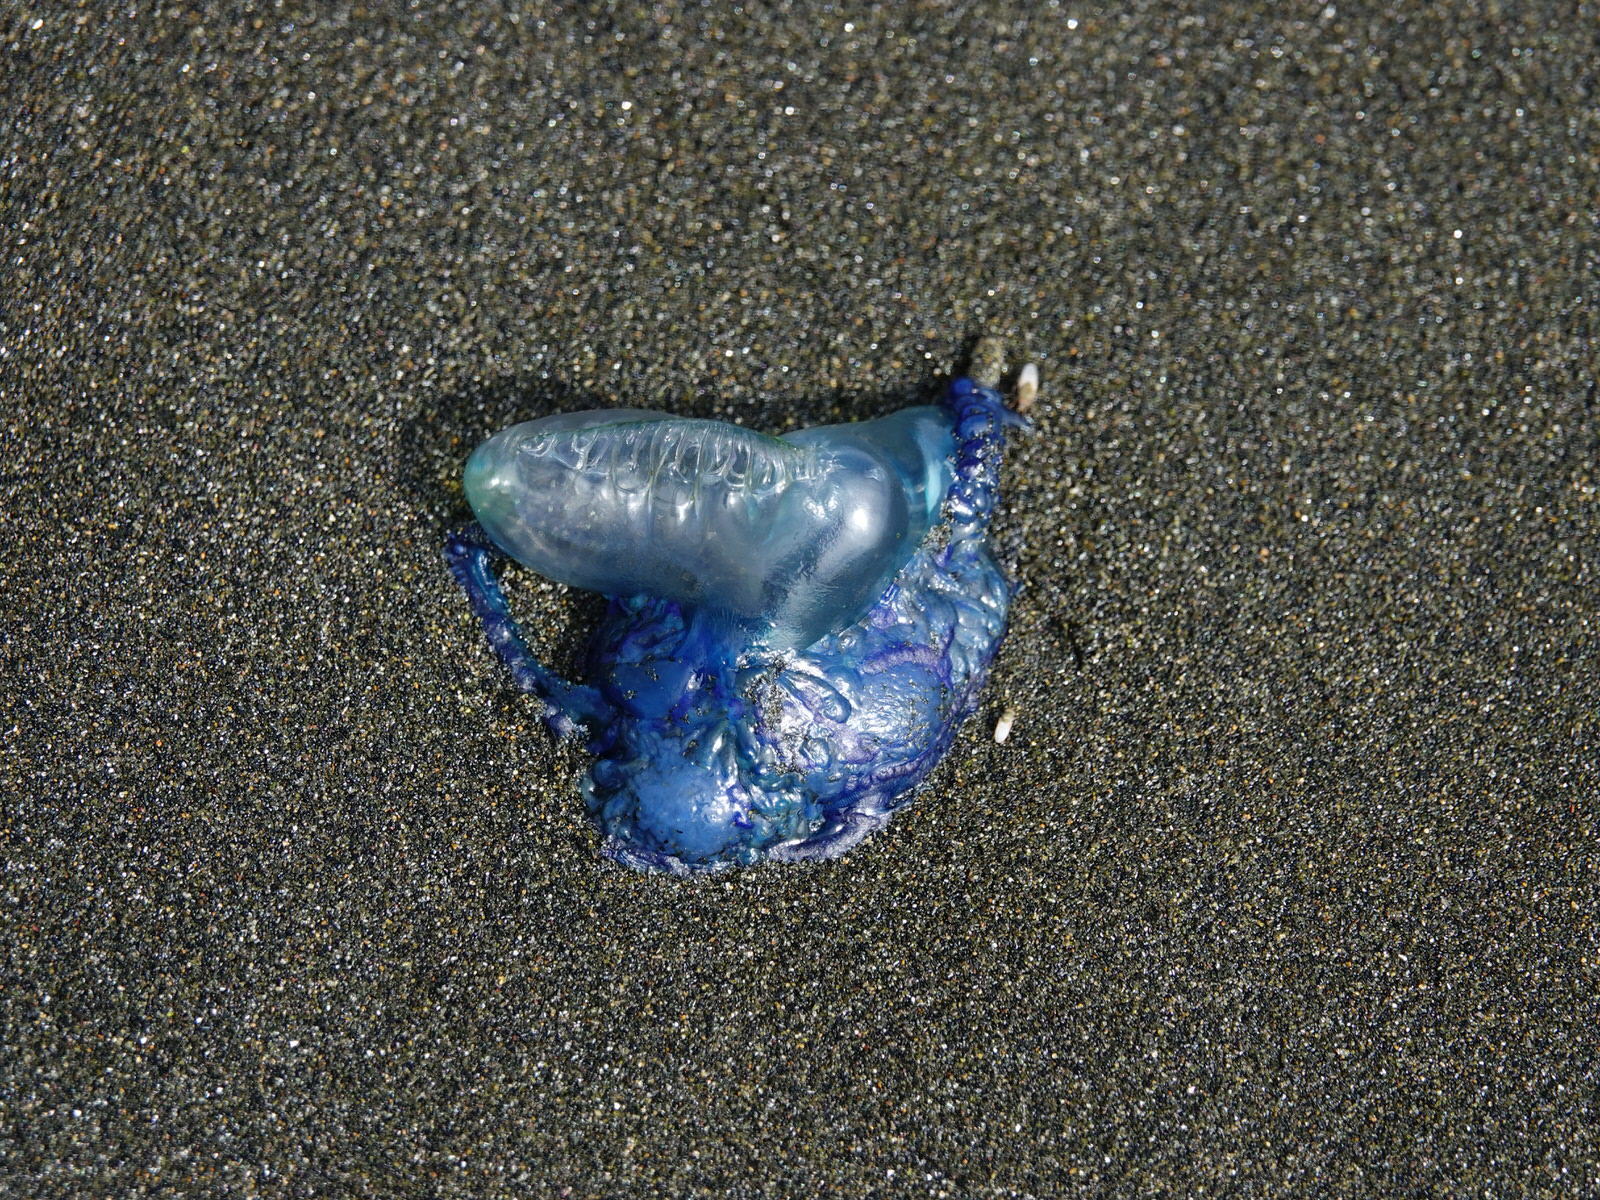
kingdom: Animalia
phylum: Cnidaria
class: Hydrozoa
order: Siphonophorae
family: Physaliidae
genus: Physalia
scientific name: Physalia physalis
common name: Portuguese man-of-war
